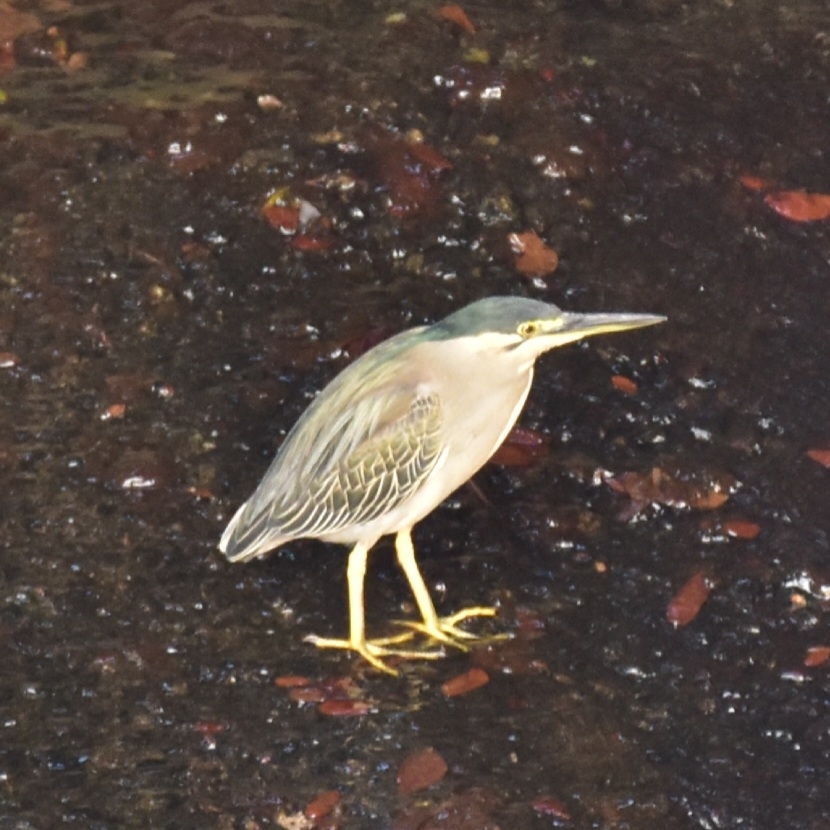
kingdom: Animalia
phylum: Chordata
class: Aves
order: Pelecaniformes
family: Ardeidae
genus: Butorides
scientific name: Butorides striata
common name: Striated heron
